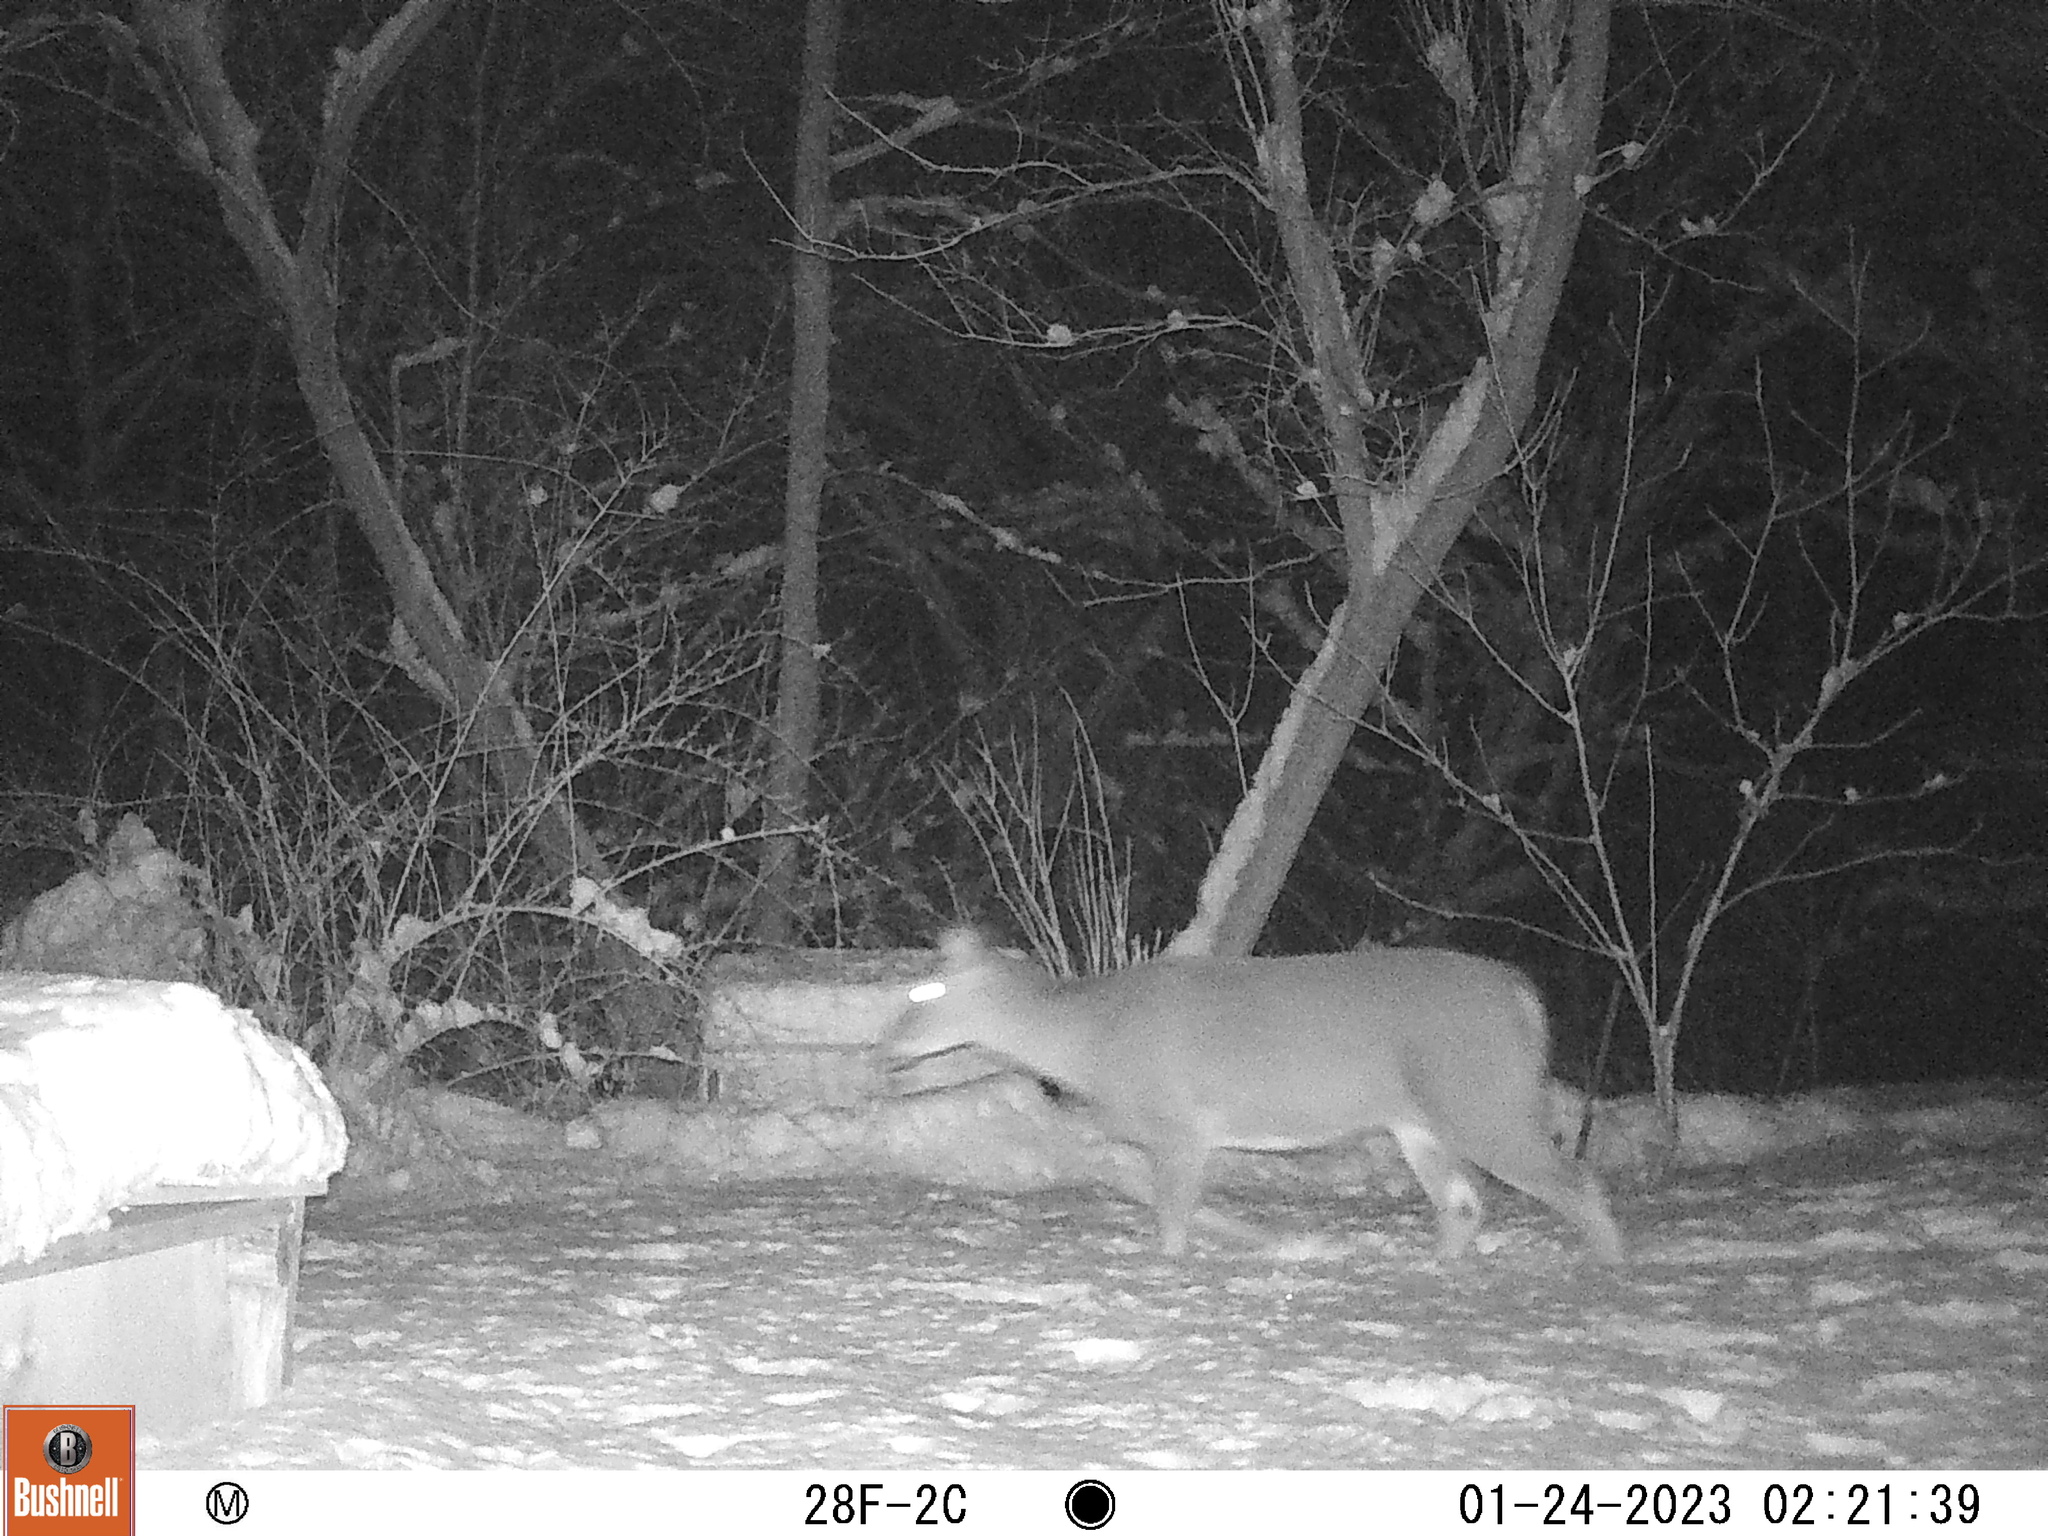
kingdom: Animalia
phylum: Chordata
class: Mammalia
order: Artiodactyla
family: Cervidae
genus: Odocoileus
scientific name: Odocoileus virginianus
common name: White-tailed deer
